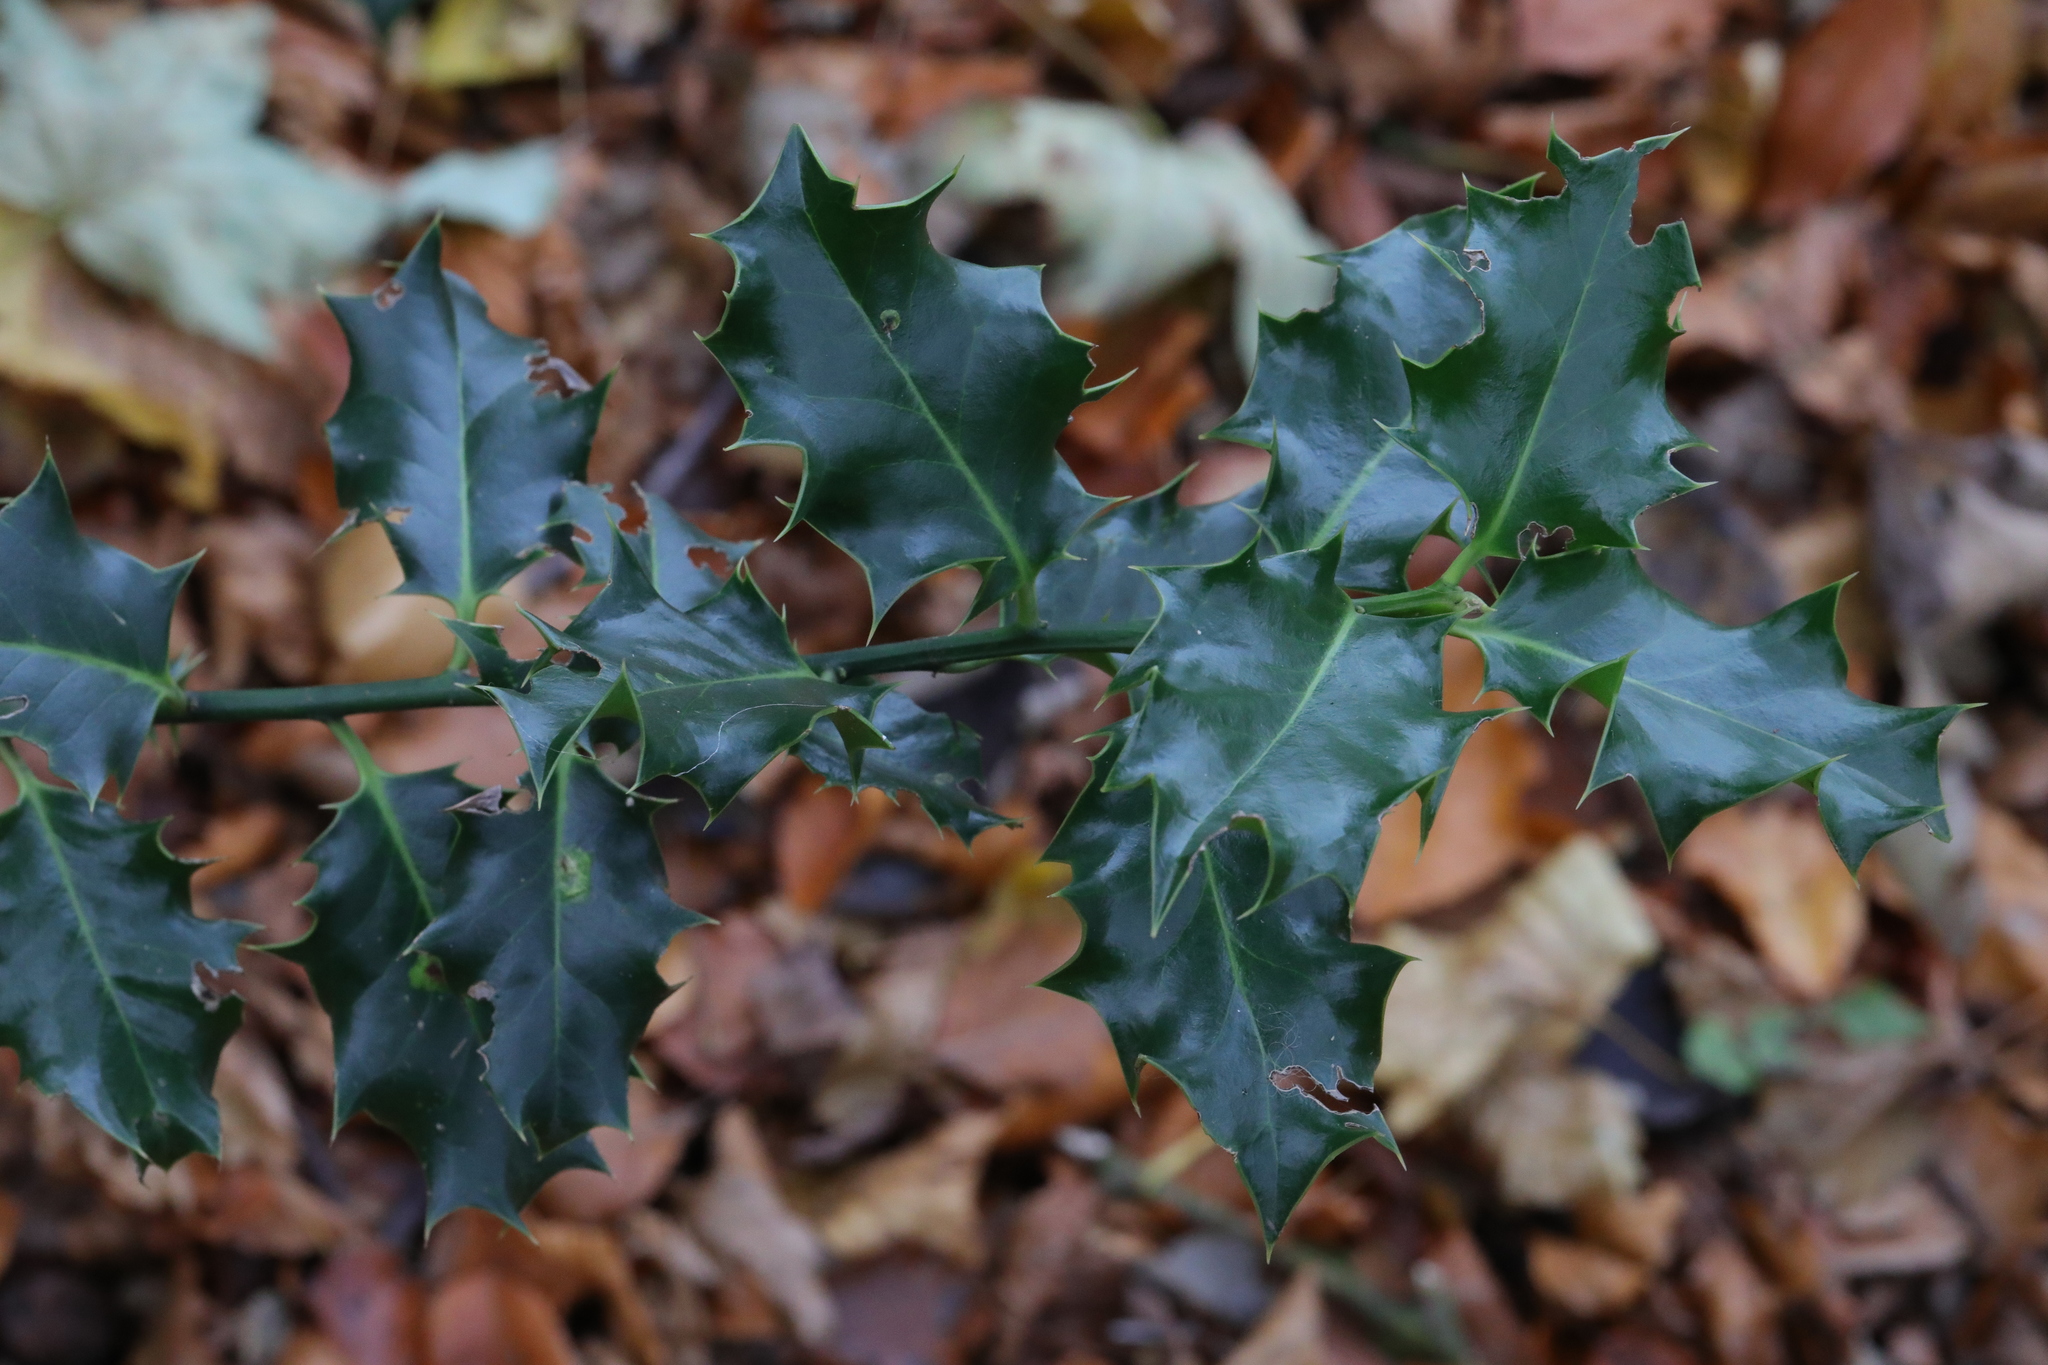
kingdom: Plantae
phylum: Tracheophyta
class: Magnoliopsida
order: Aquifoliales
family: Aquifoliaceae
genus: Ilex
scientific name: Ilex aquifolium
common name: English holly
